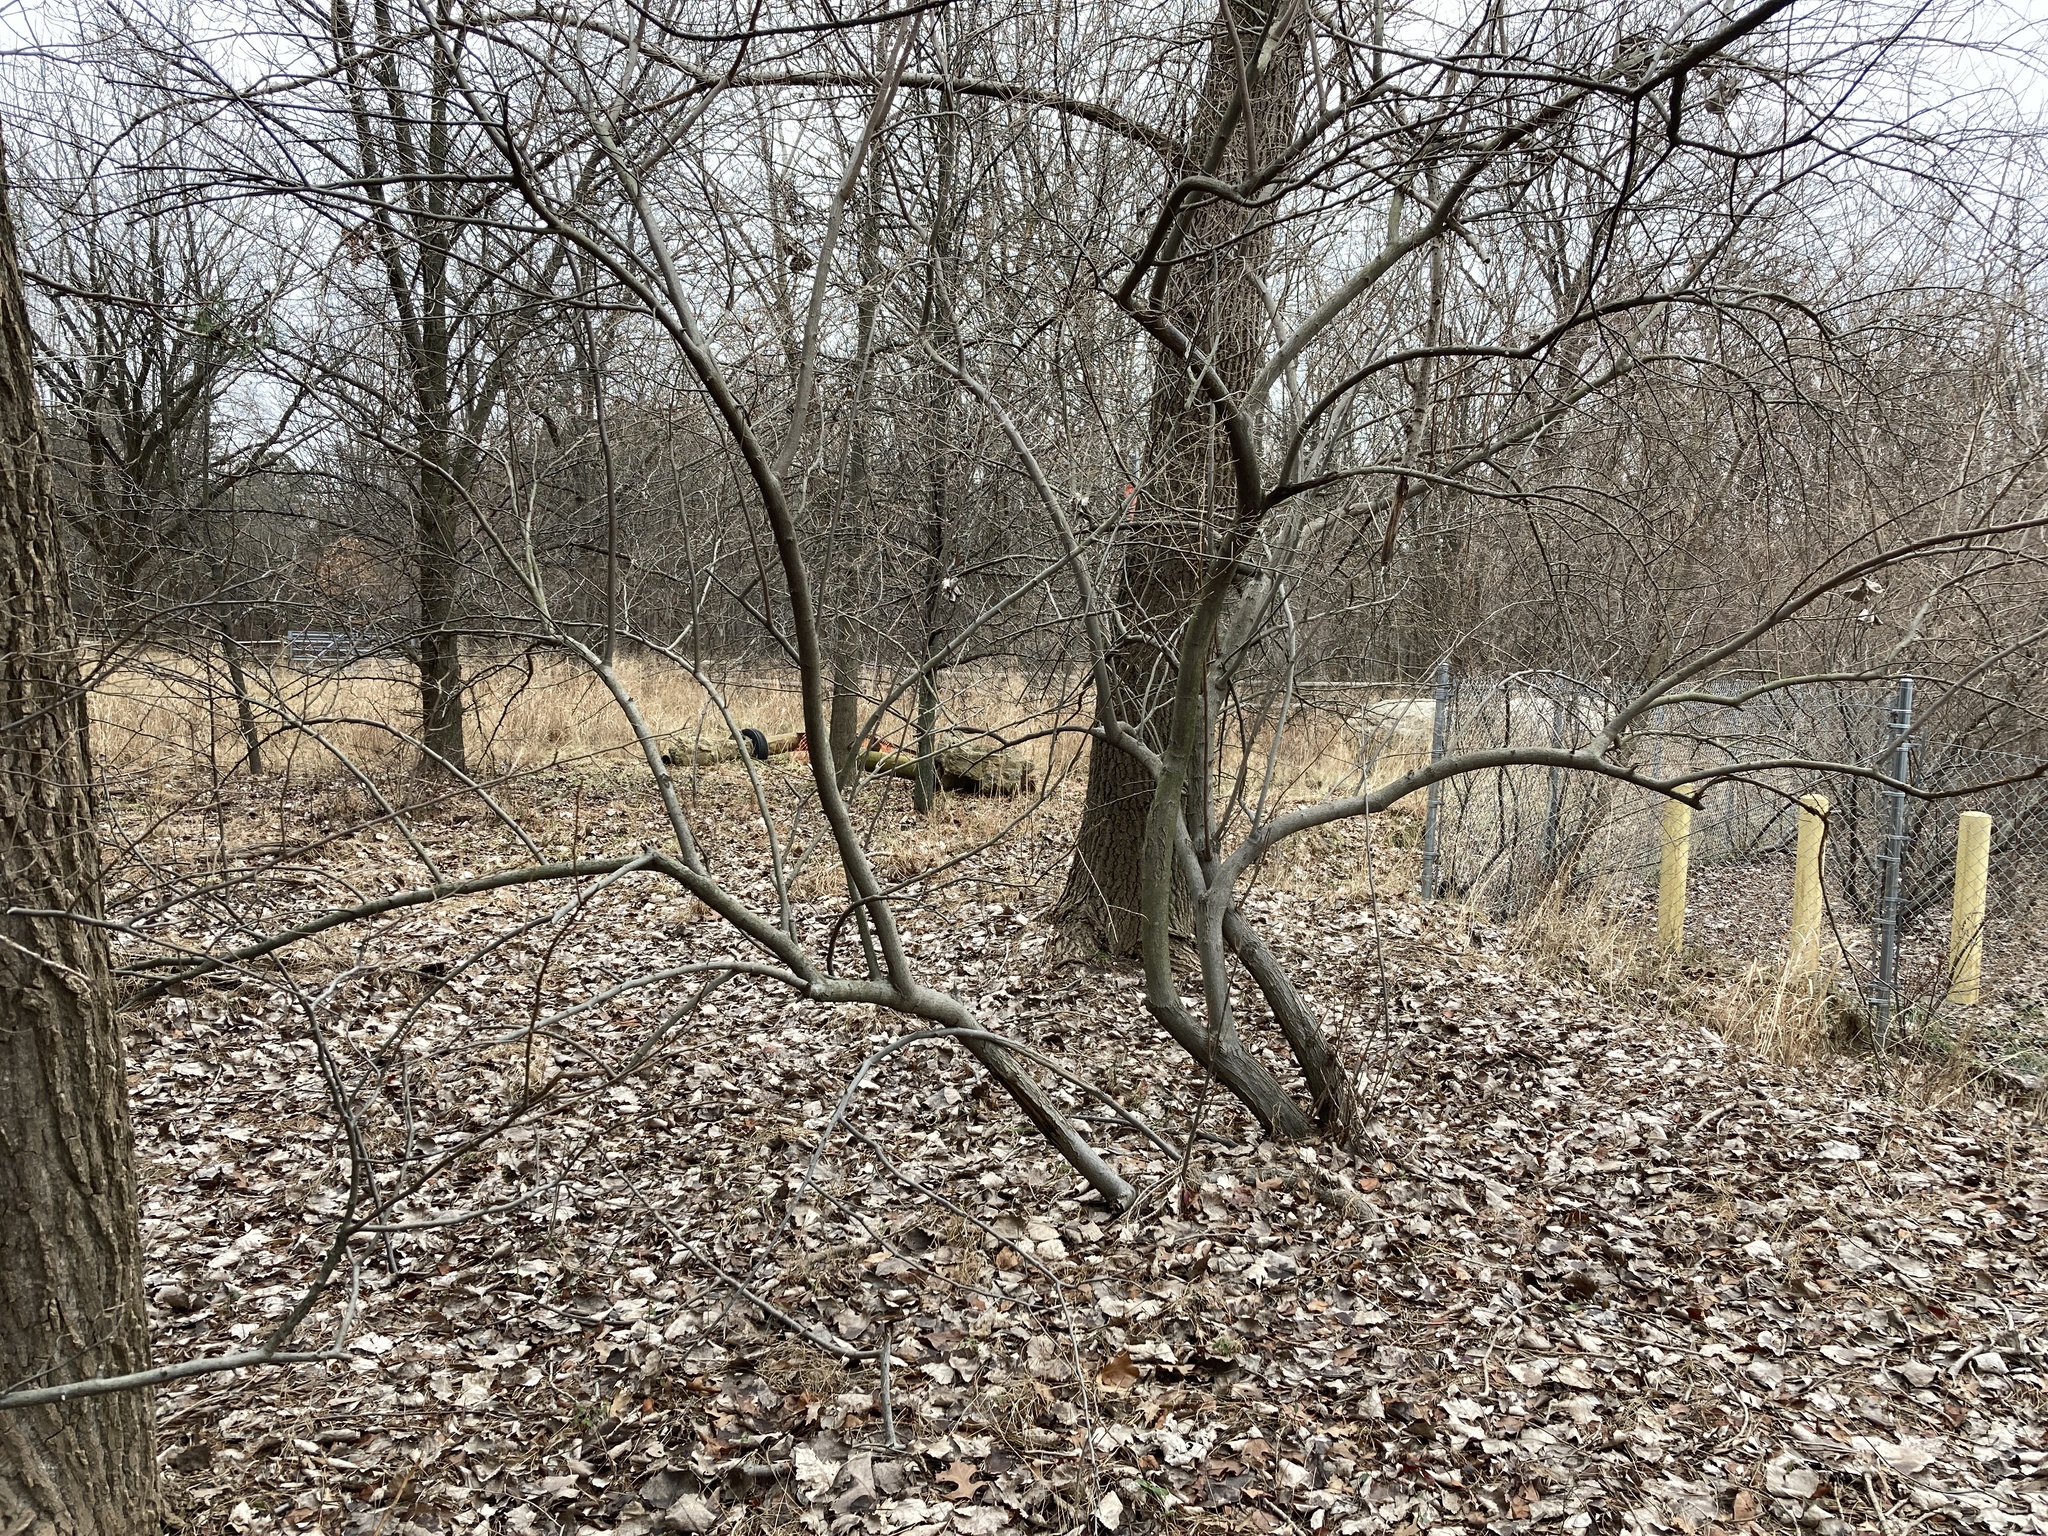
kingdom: Plantae
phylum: Tracheophyta
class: Magnoliopsida
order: Rosales
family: Elaeagnaceae
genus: Elaeagnus
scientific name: Elaeagnus umbellata
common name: Autumn olive
